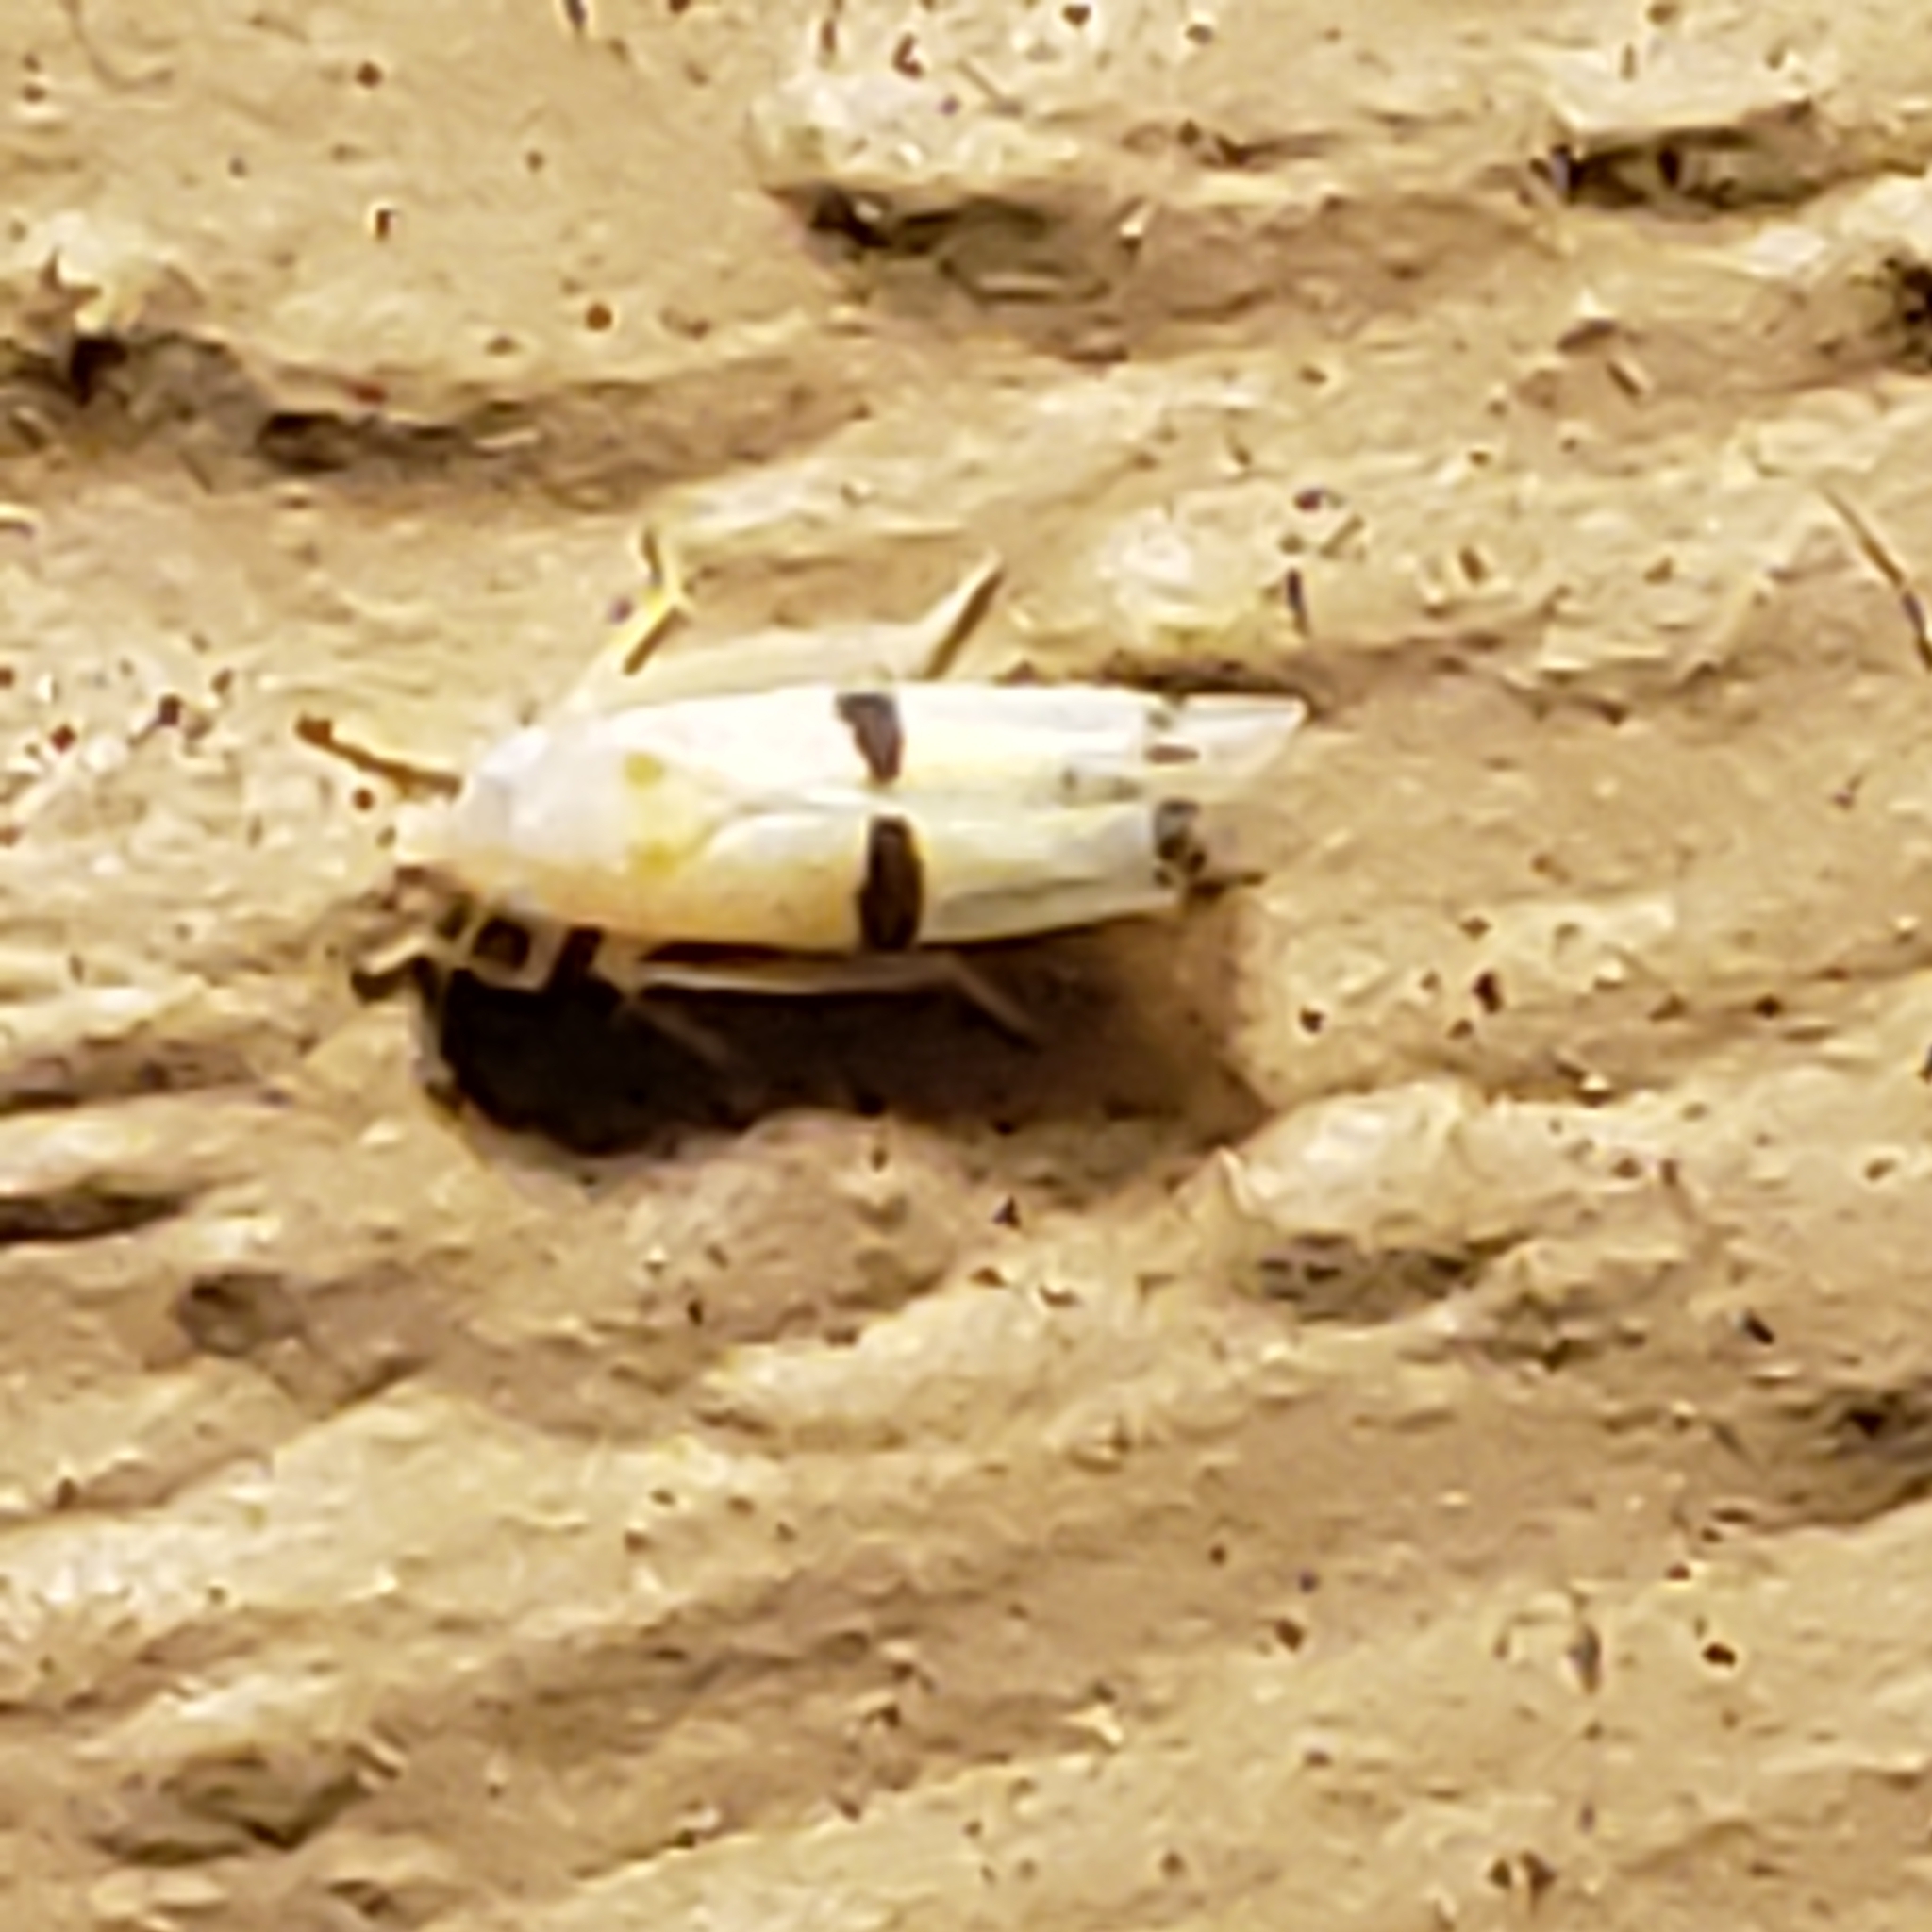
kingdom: Animalia
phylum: Arthropoda
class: Insecta
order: Hemiptera
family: Cicadellidae
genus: Empoa
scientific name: Empoa gillettei
